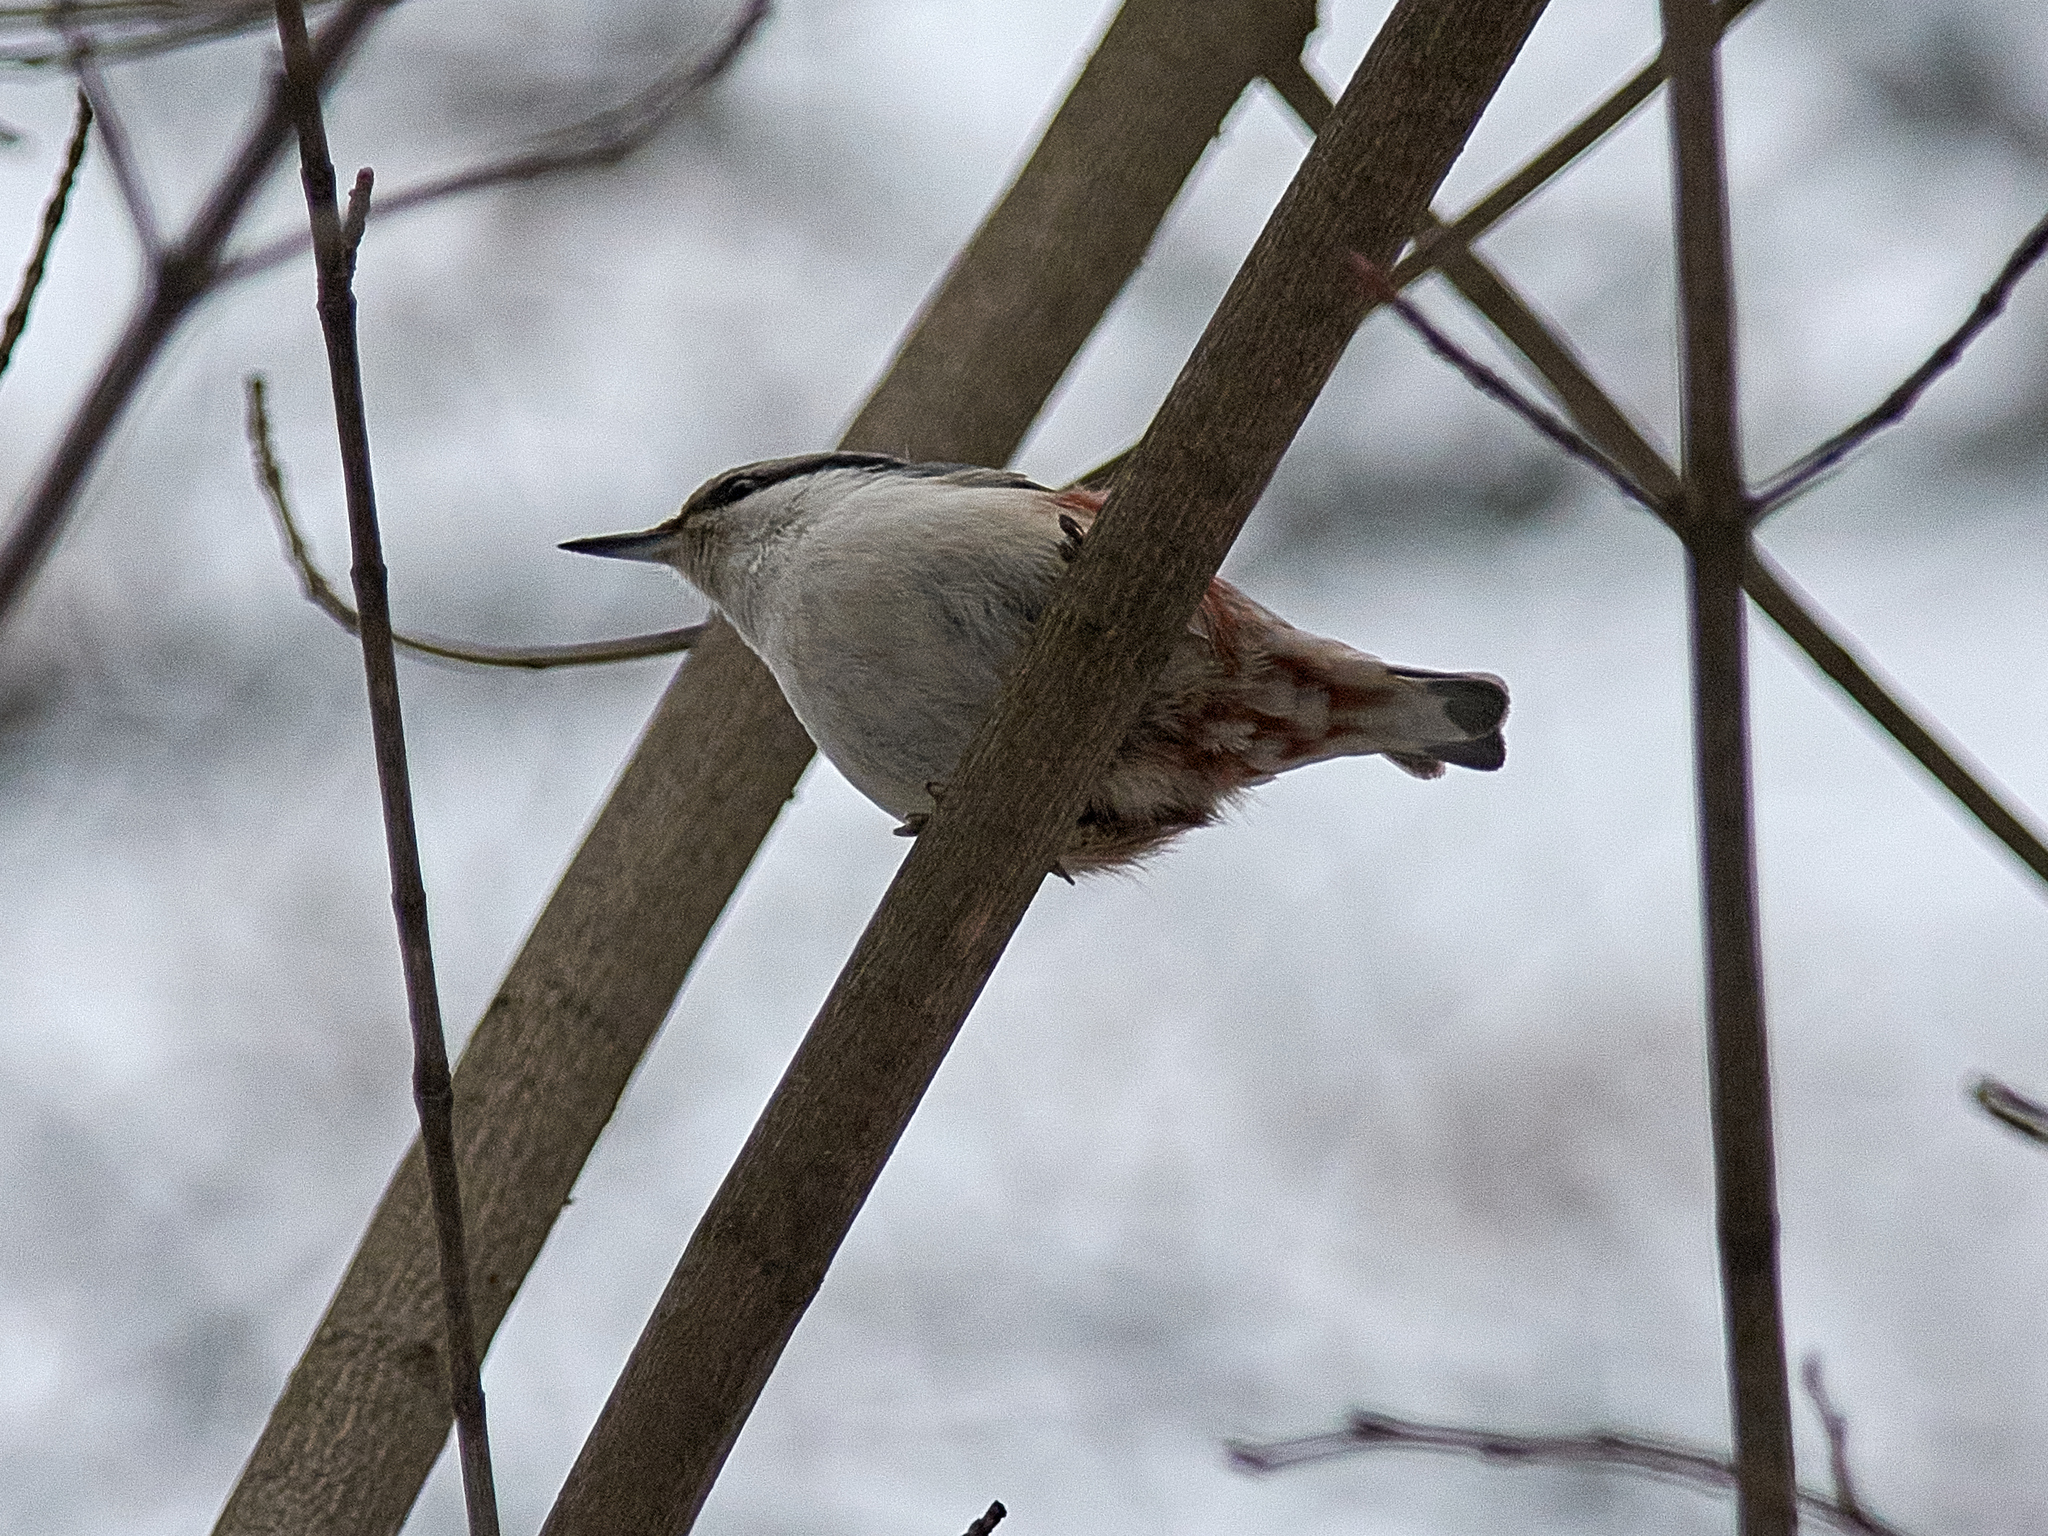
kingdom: Animalia
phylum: Chordata
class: Aves
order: Passeriformes
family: Sittidae
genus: Sitta
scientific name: Sitta europaea
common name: Eurasian nuthatch
